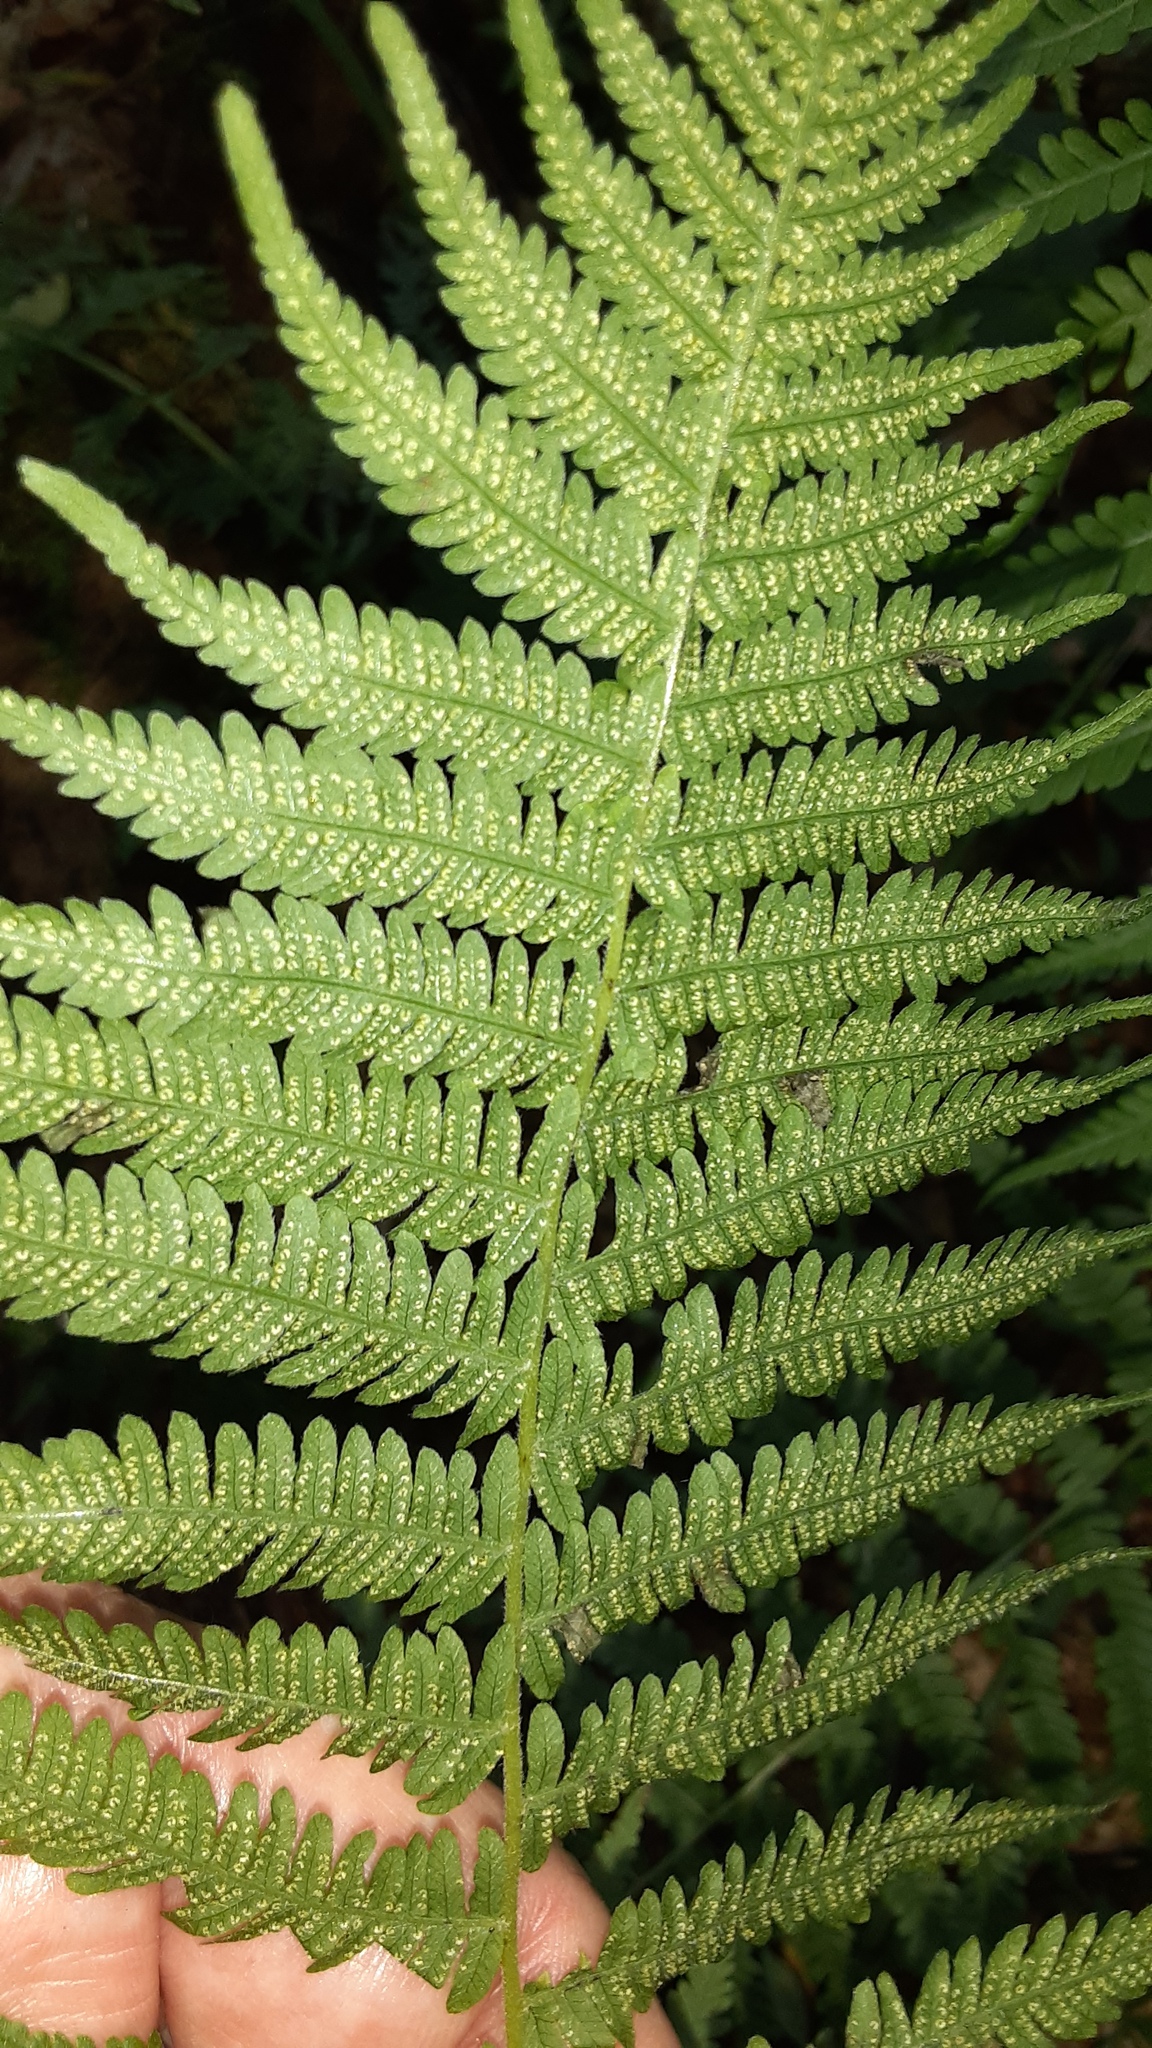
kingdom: Plantae
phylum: Tracheophyta
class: Polypodiopsida
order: Polypodiales
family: Thelypteridaceae
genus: Amauropelta
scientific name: Amauropelta noveboracensis
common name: New york fern
